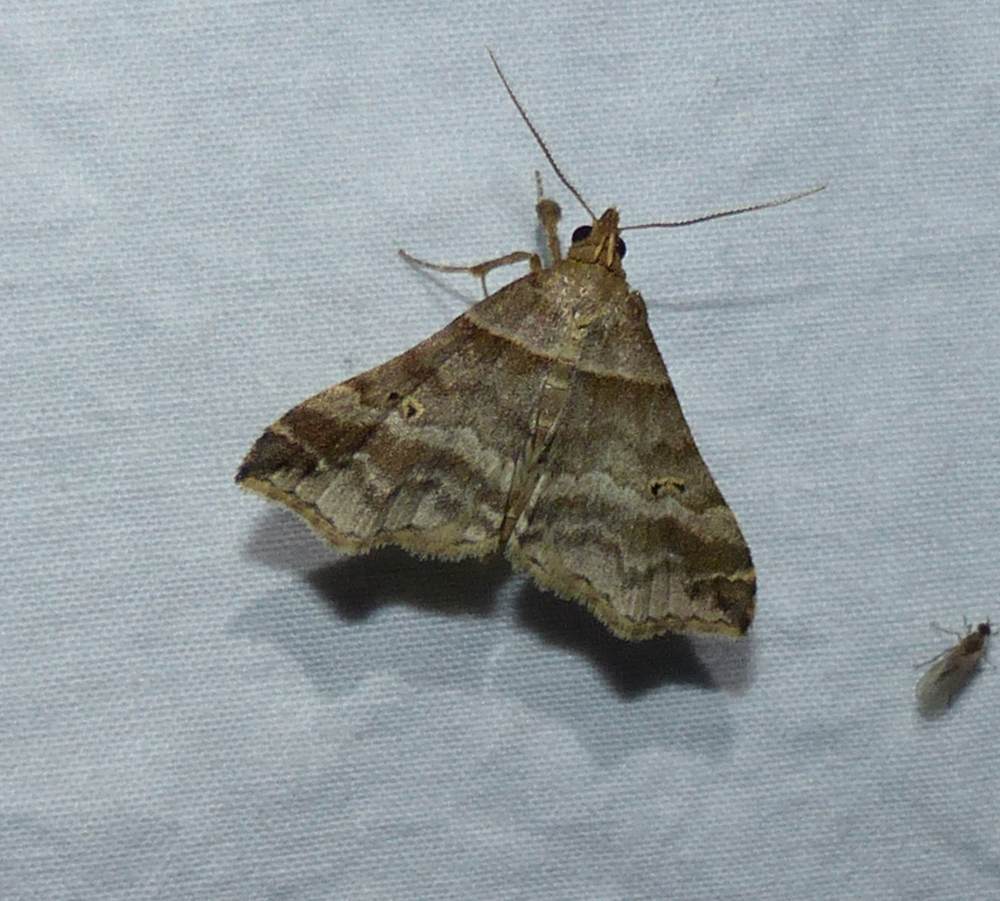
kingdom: Animalia
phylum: Arthropoda
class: Insecta
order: Lepidoptera
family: Erebidae
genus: Phaeolita
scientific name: Phaeolita pyramusalis
